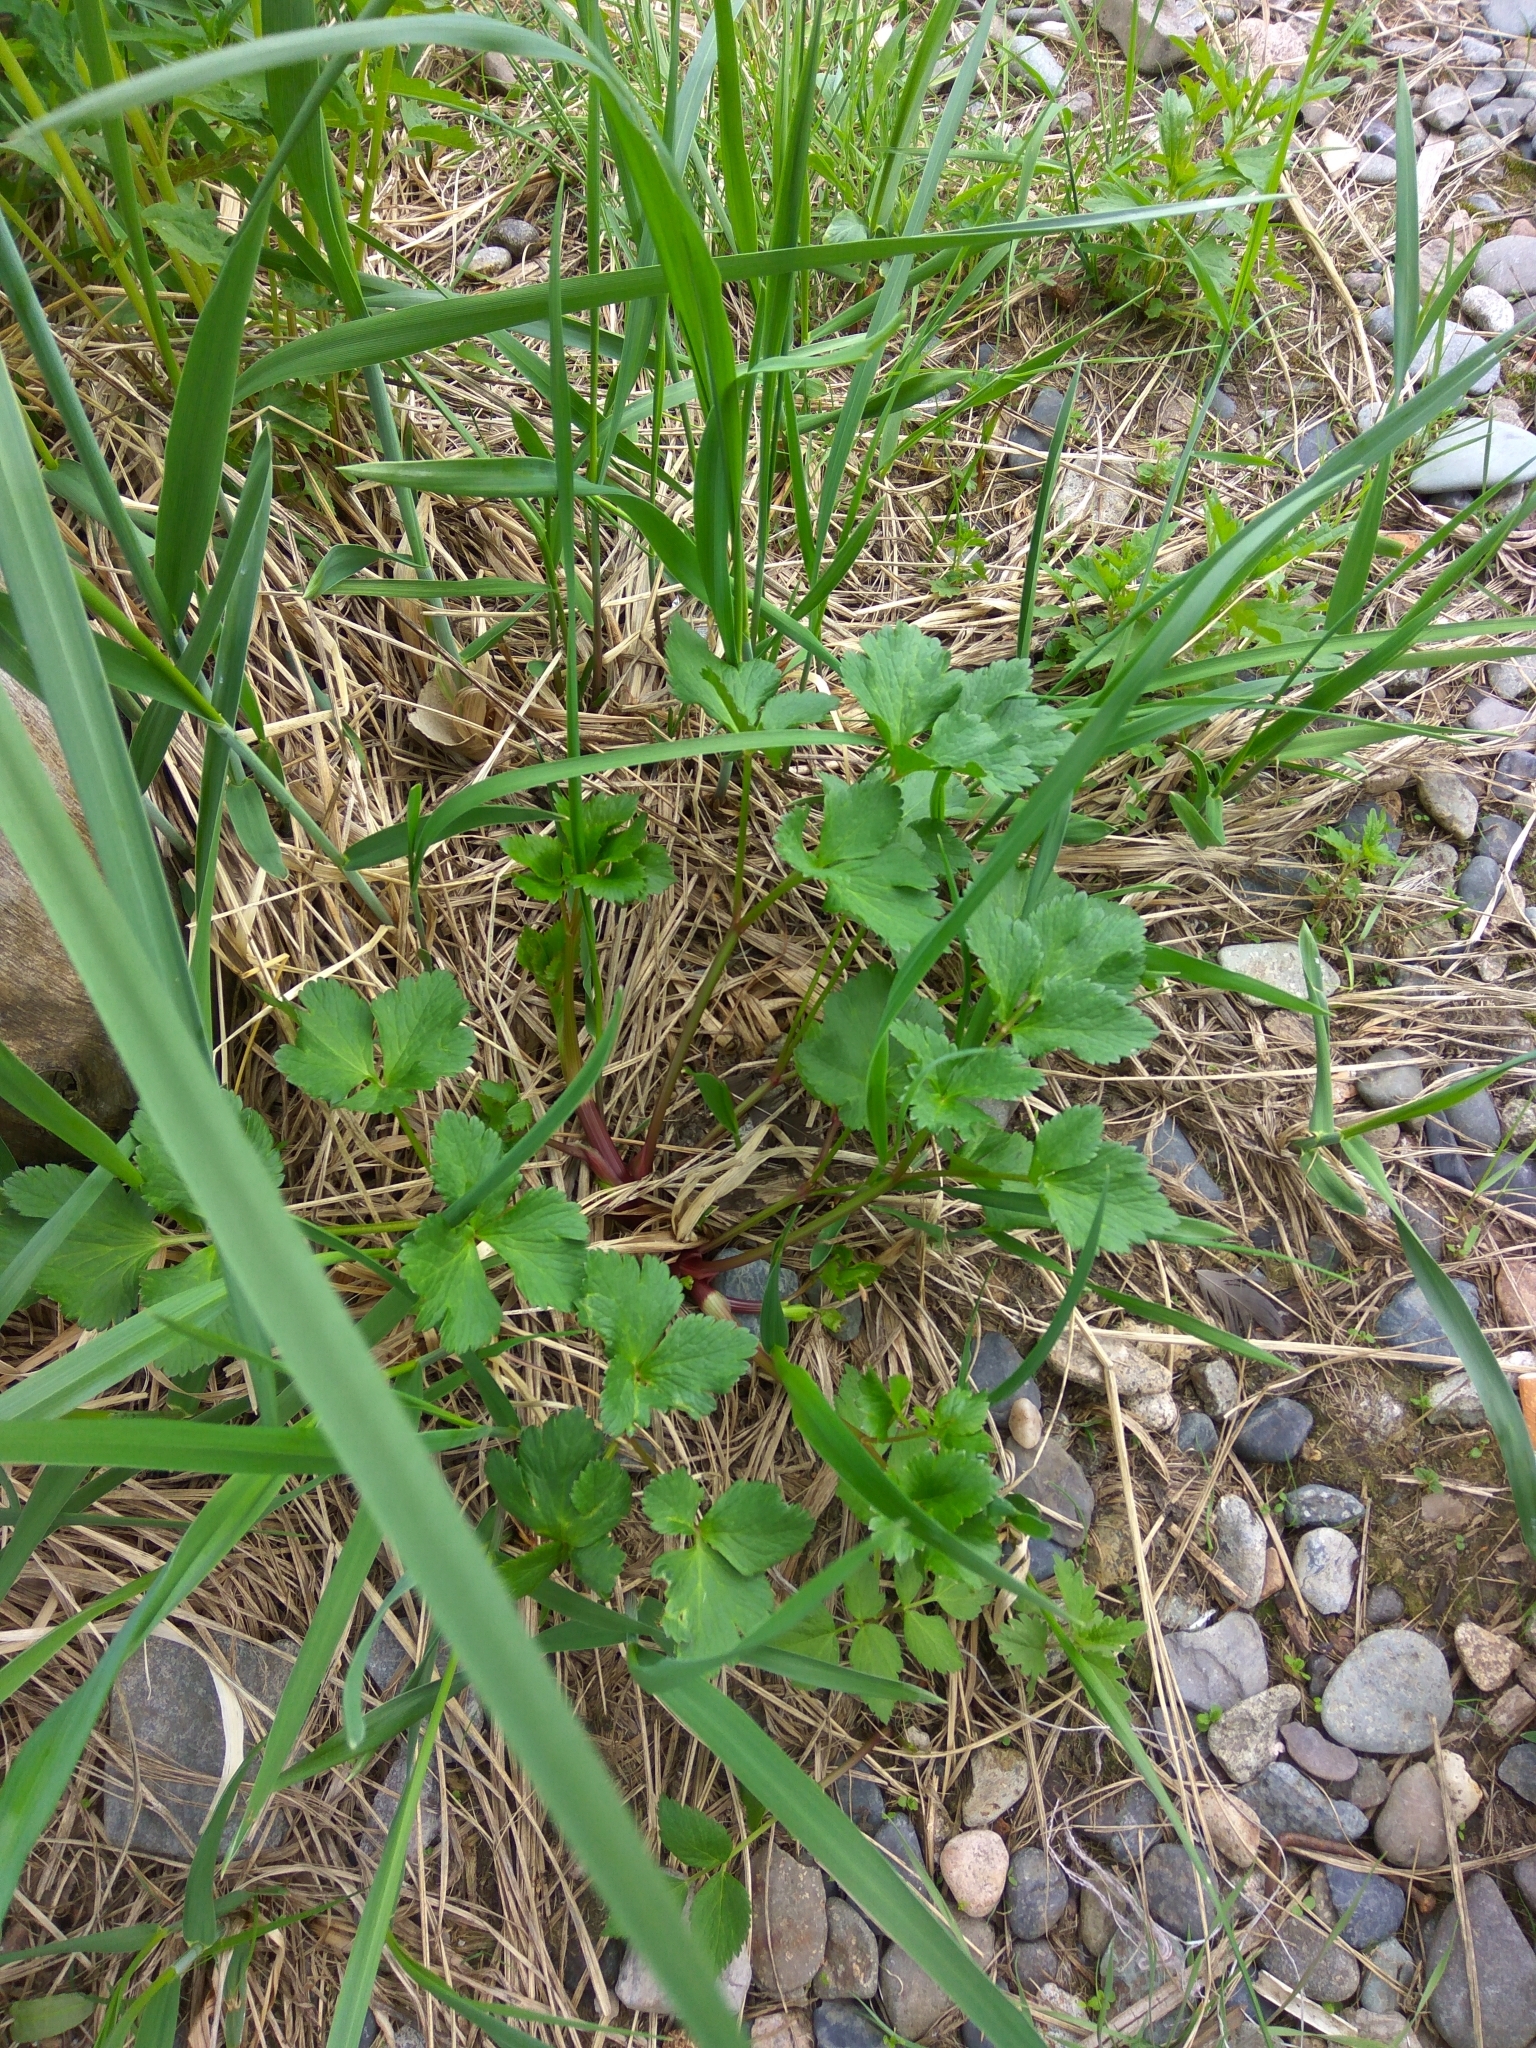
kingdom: Plantae
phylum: Tracheophyta
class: Magnoliopsida
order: Apiales
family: Apiaceae
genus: Ligusticum
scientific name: Ligusticum scothicum
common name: Beach lovage
